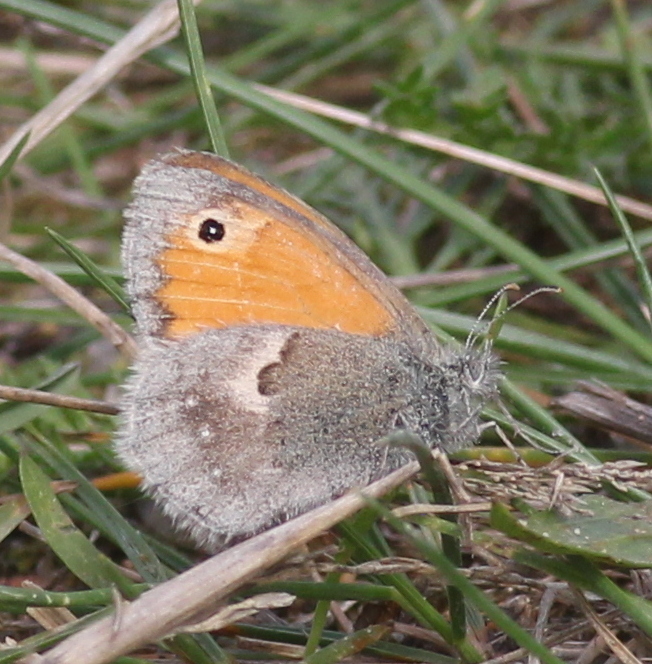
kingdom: Animalia
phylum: Arthropoda
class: Insecta
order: Lepidoptera
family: Nymphalidae
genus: Coenonympha
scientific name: Coenonympha pamphilus
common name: Small heath
